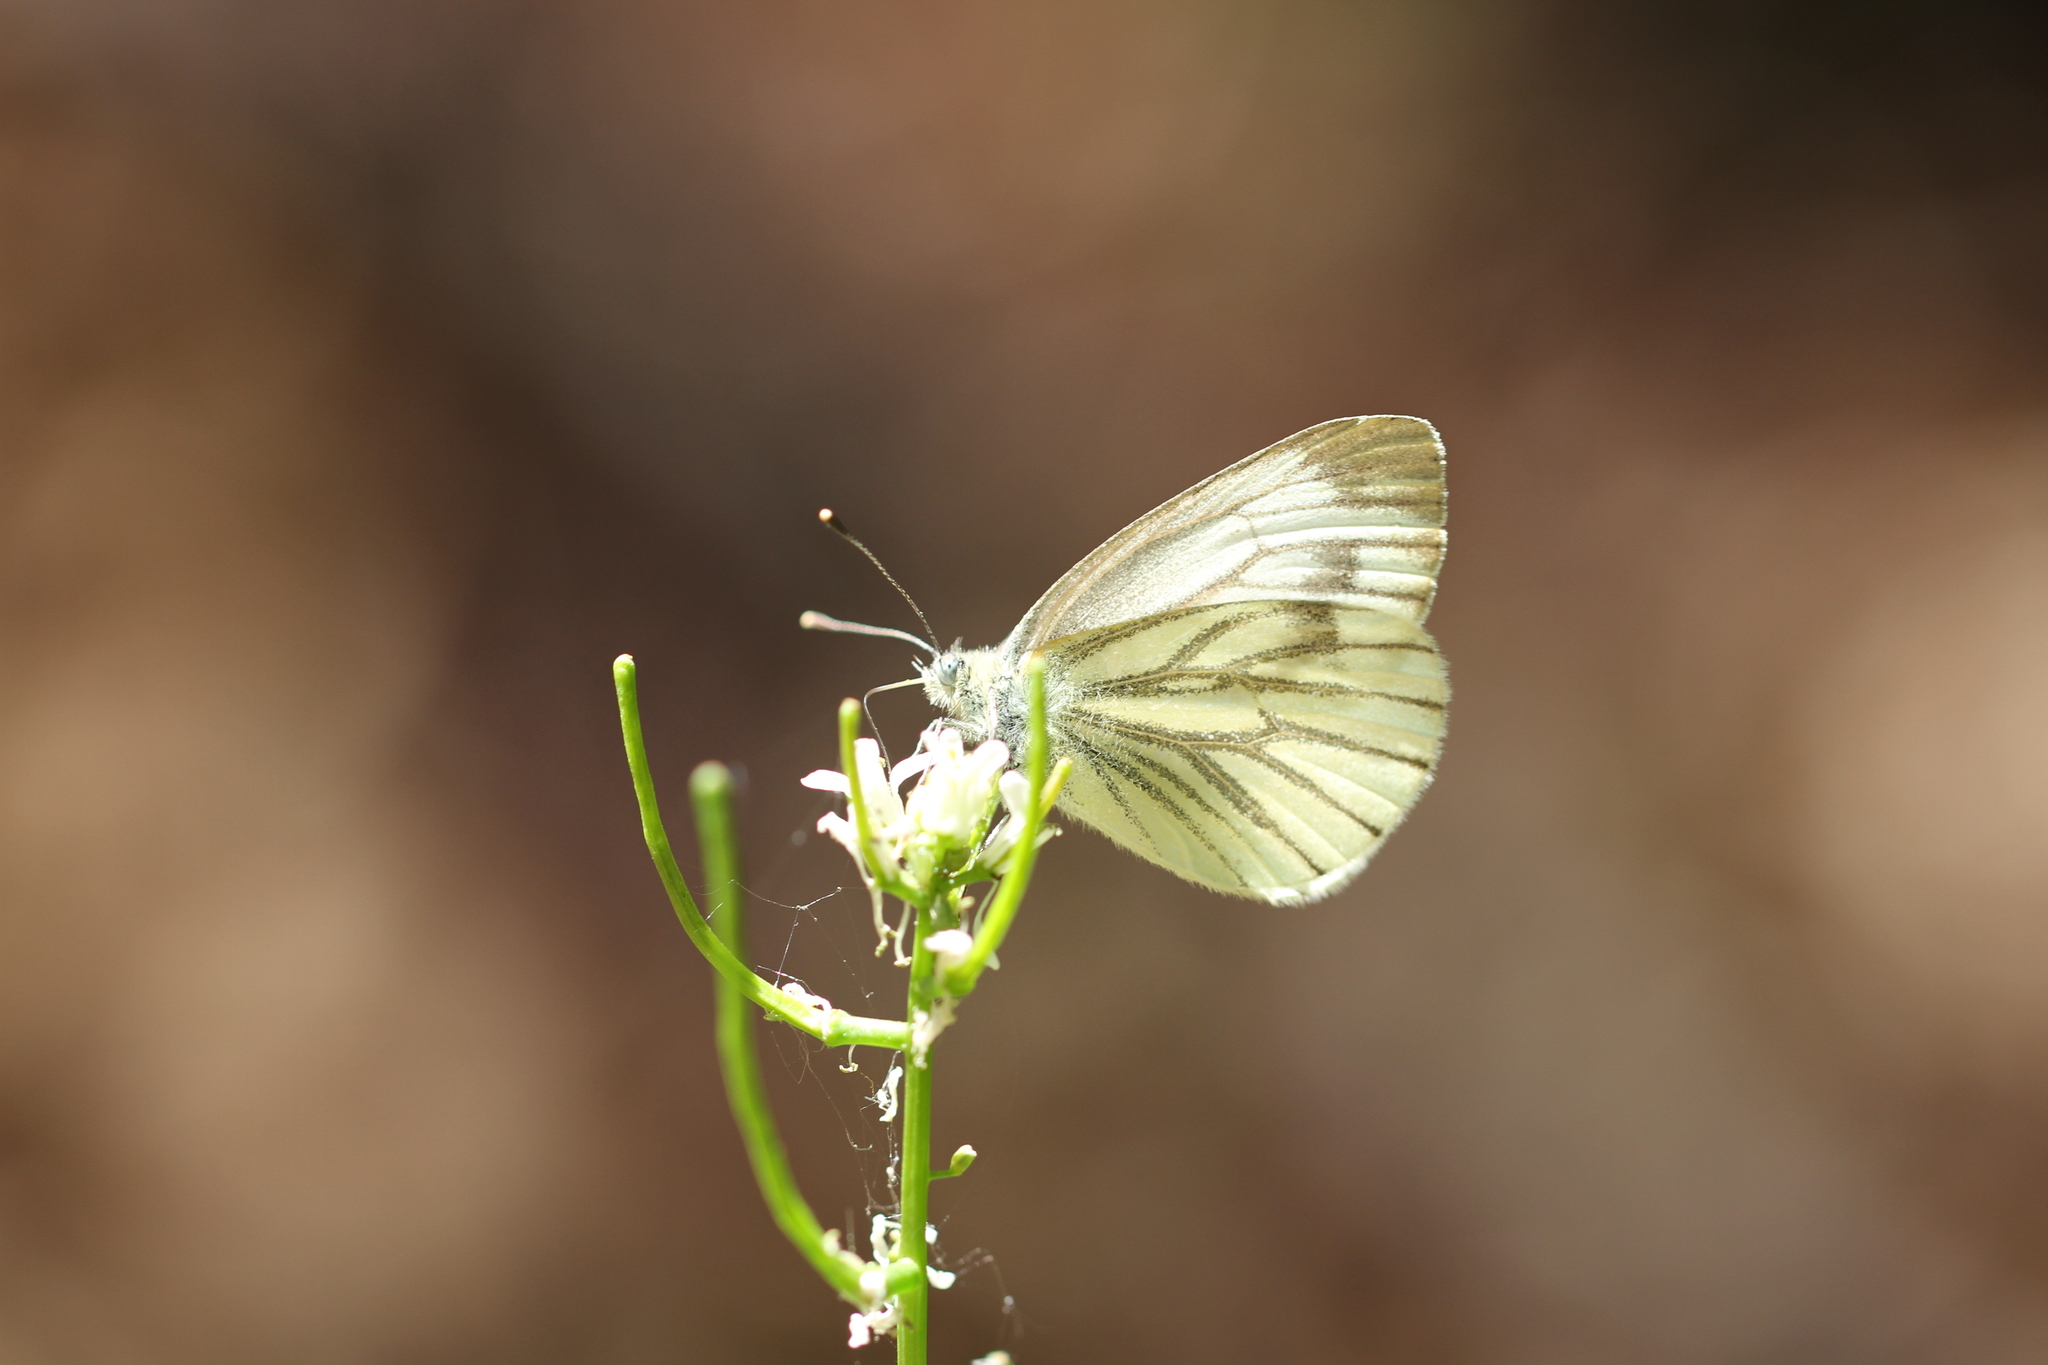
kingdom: Animalia
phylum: Arthropoda
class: Insecta
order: Lepidoptera
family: Pieridae
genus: Pieris
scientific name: Pieris napi
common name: Green-veined white
